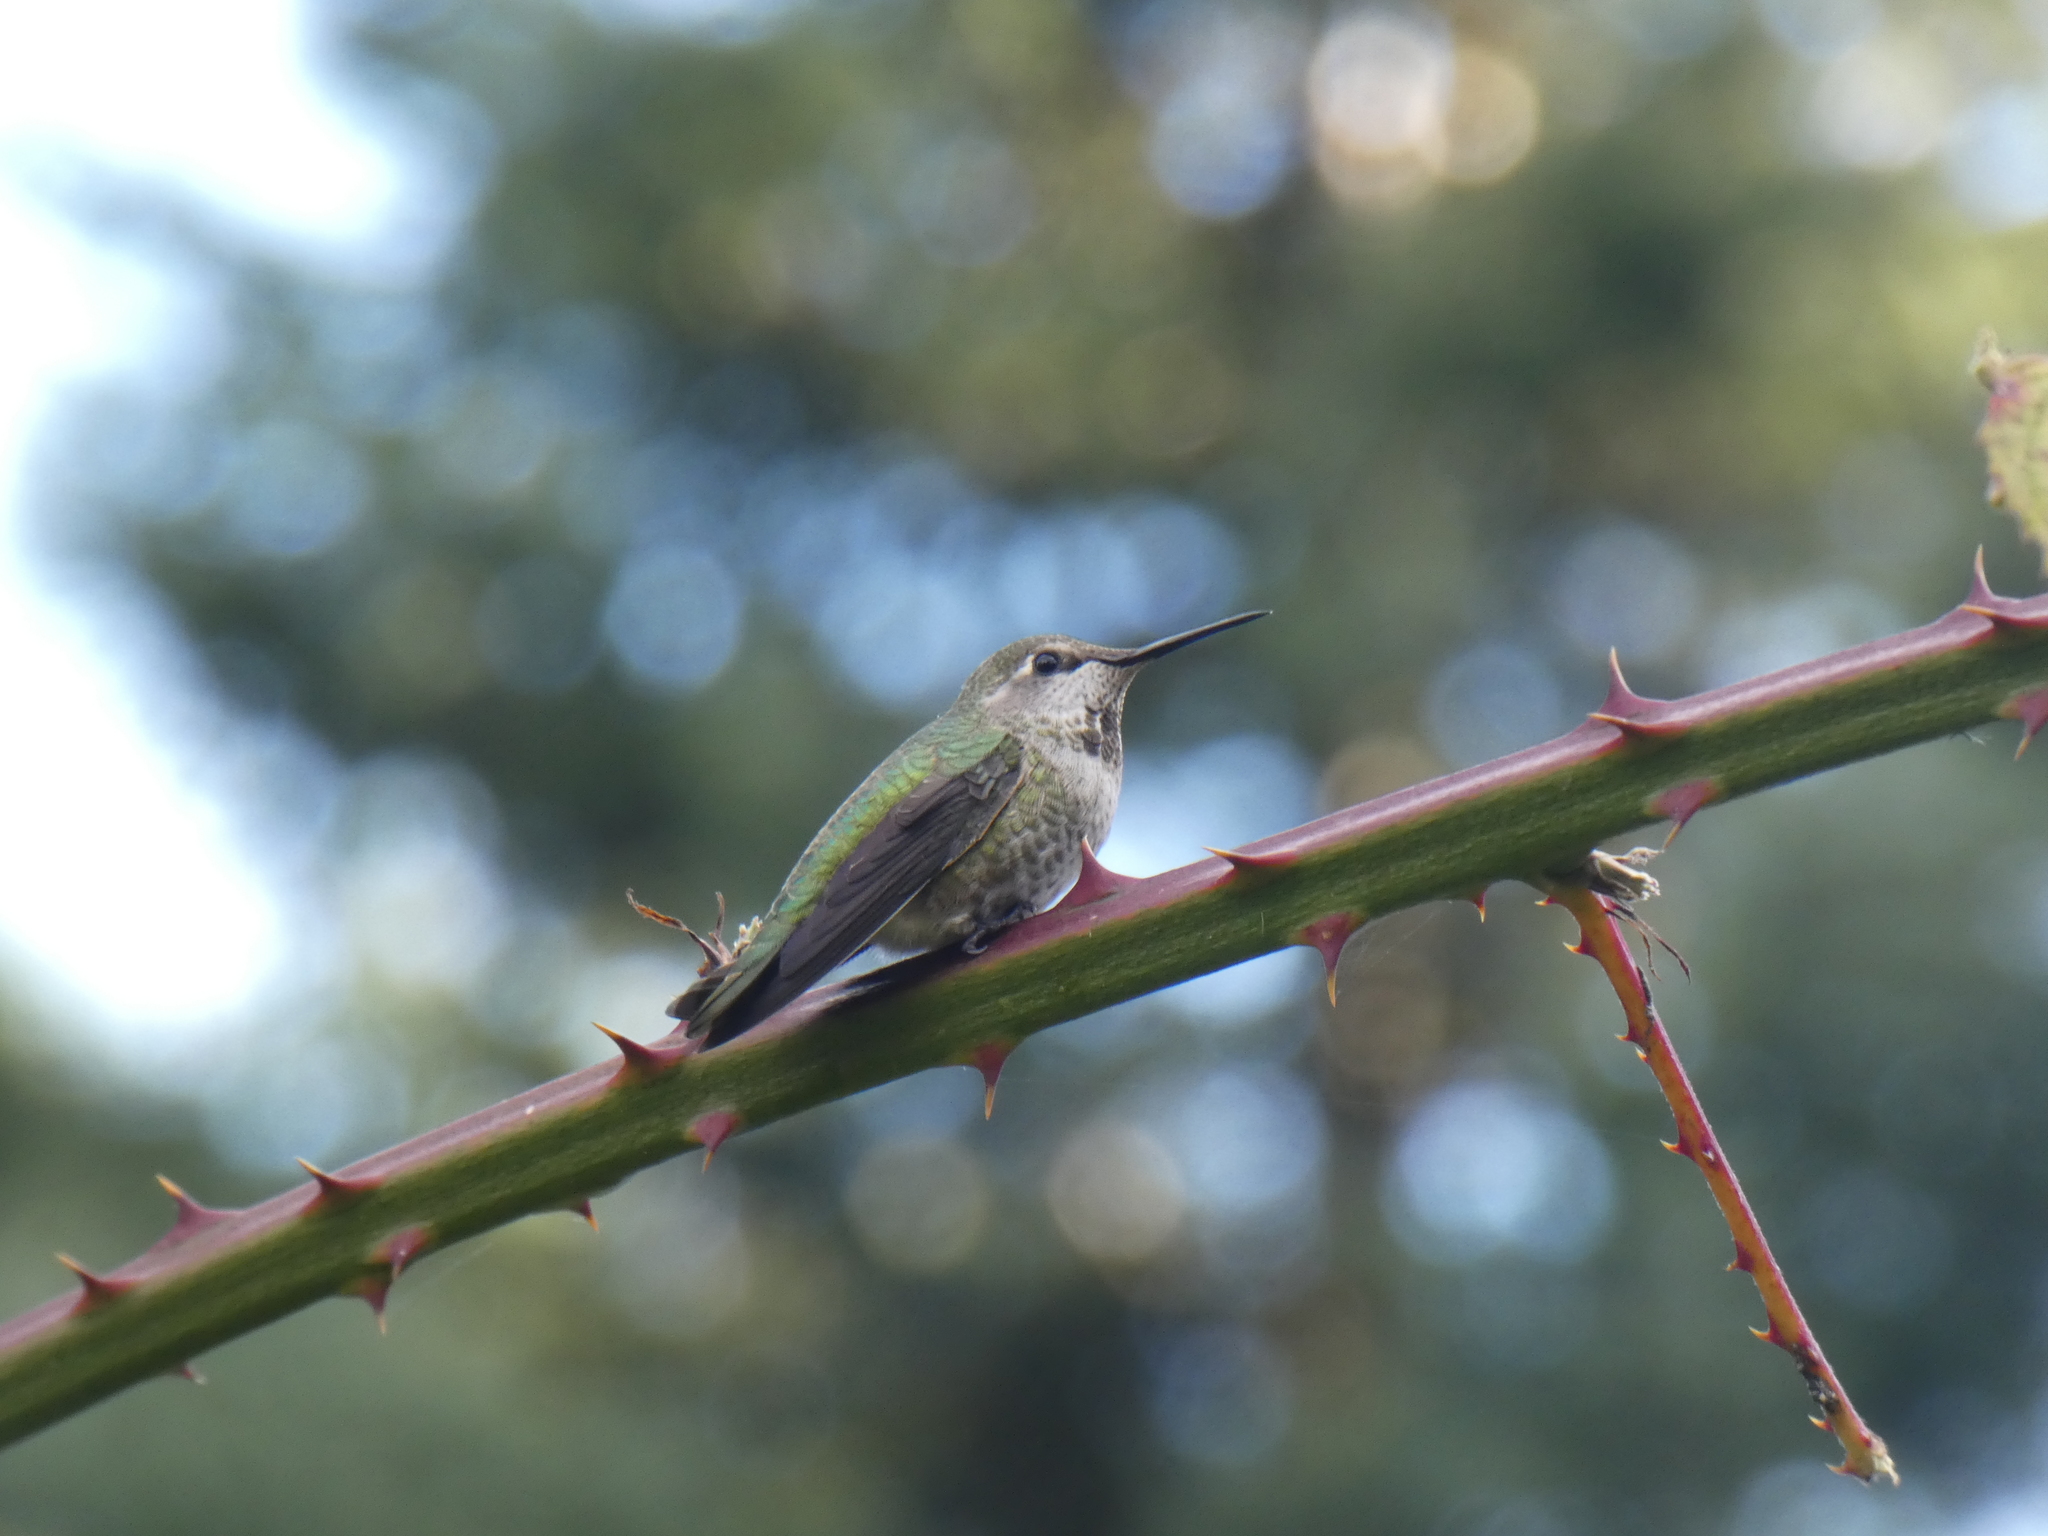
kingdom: Animalia
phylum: Chordata
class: Aves
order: Apodiformes
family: Trochilidae
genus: Calypte
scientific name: Calypte anna
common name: Anna's hummingbird
